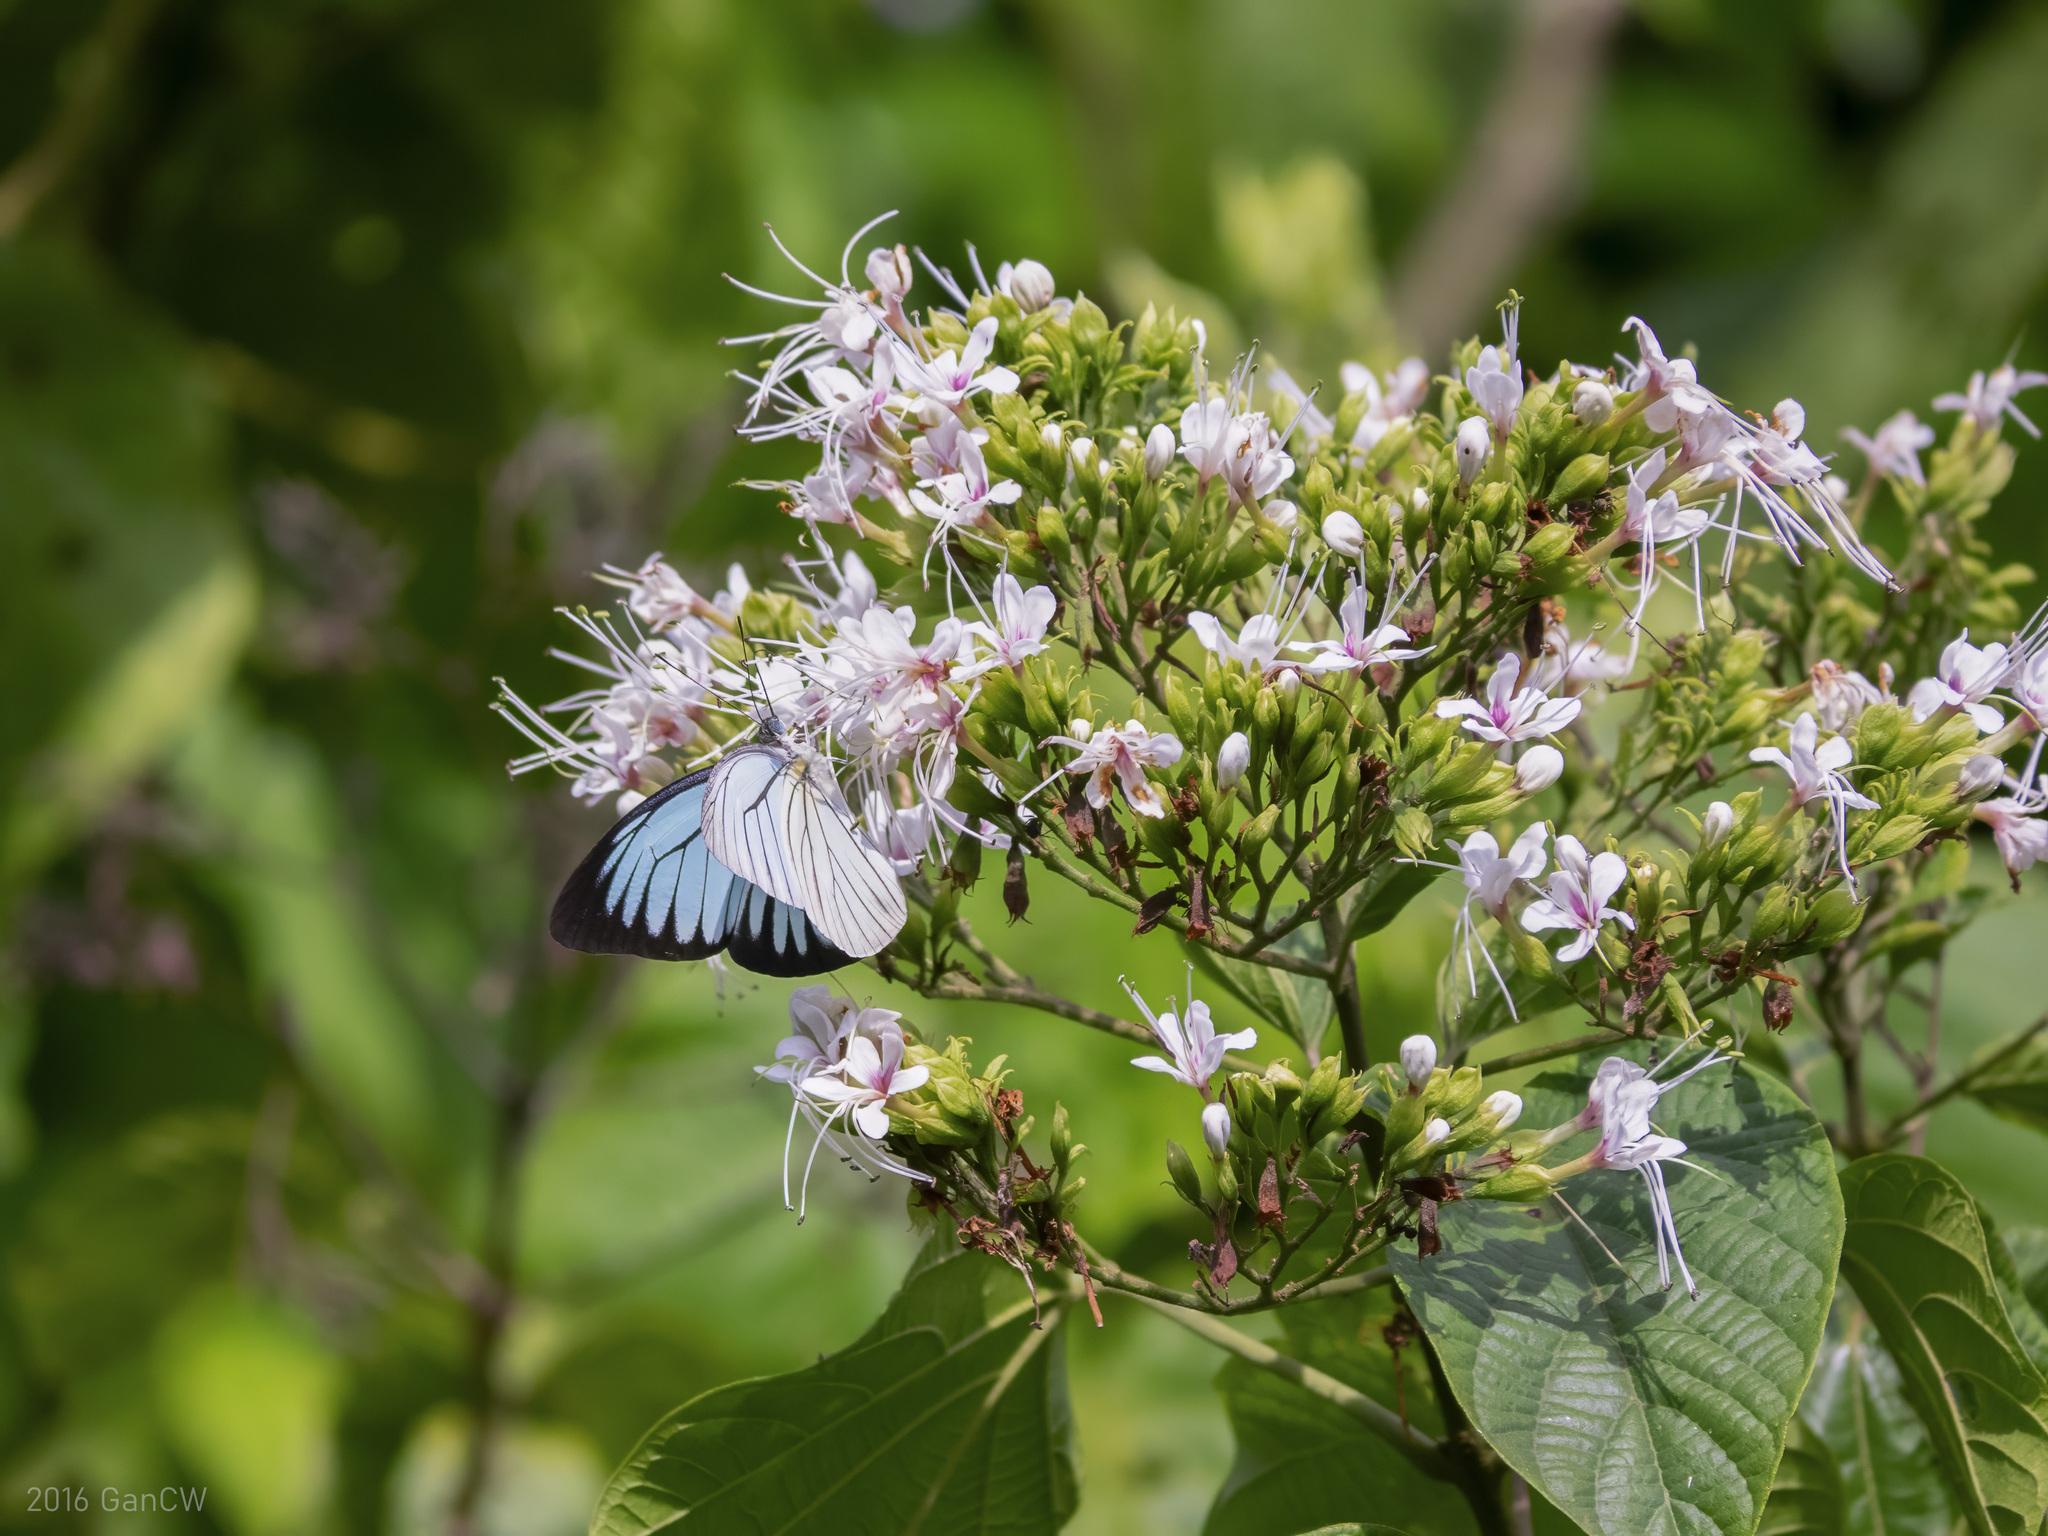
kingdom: Animalia
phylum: Arthropoda
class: Insecta
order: Lepidoptera
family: Pieridae
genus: Pareronia
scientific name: Pareronia valeria
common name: Common wanderer?
